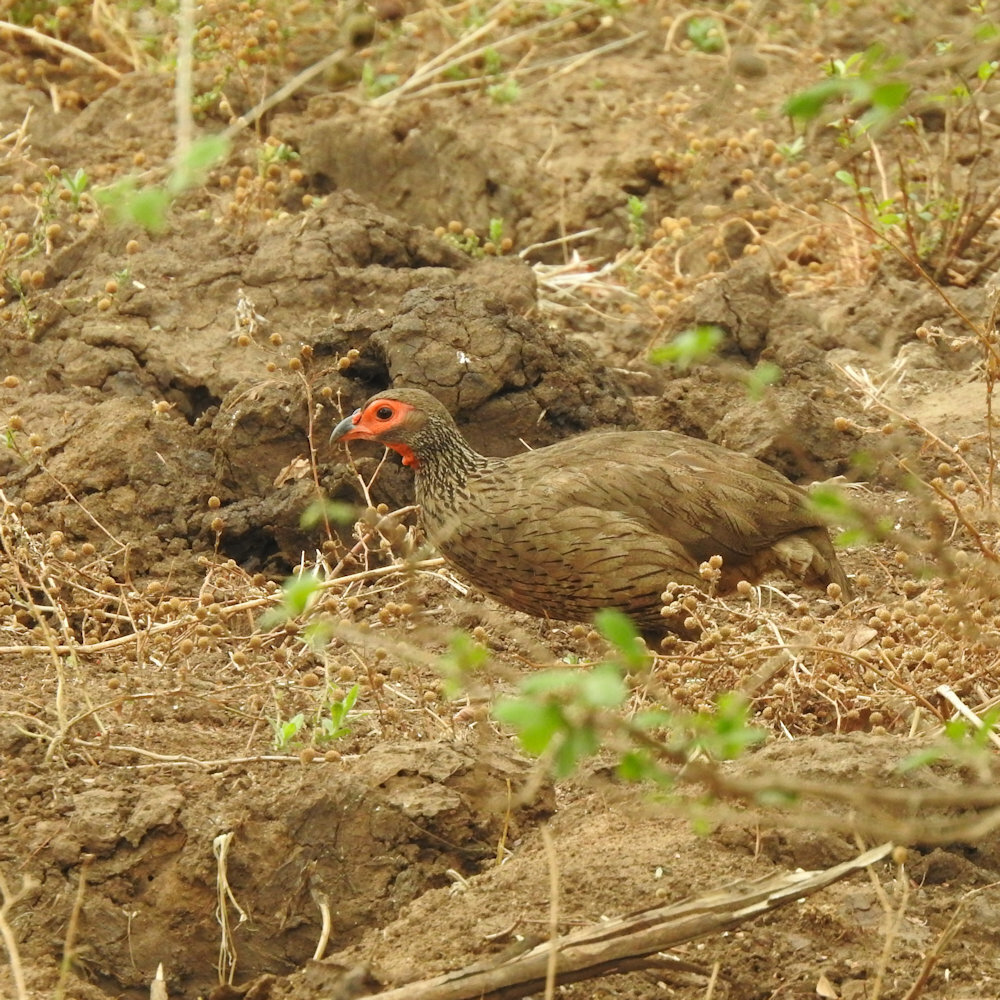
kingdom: Animalia
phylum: Chordata
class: Aves
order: Galliformes
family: Phasianidae
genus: Pternistis
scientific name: Pternistis swainsonii
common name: Swainson's spurfowl
